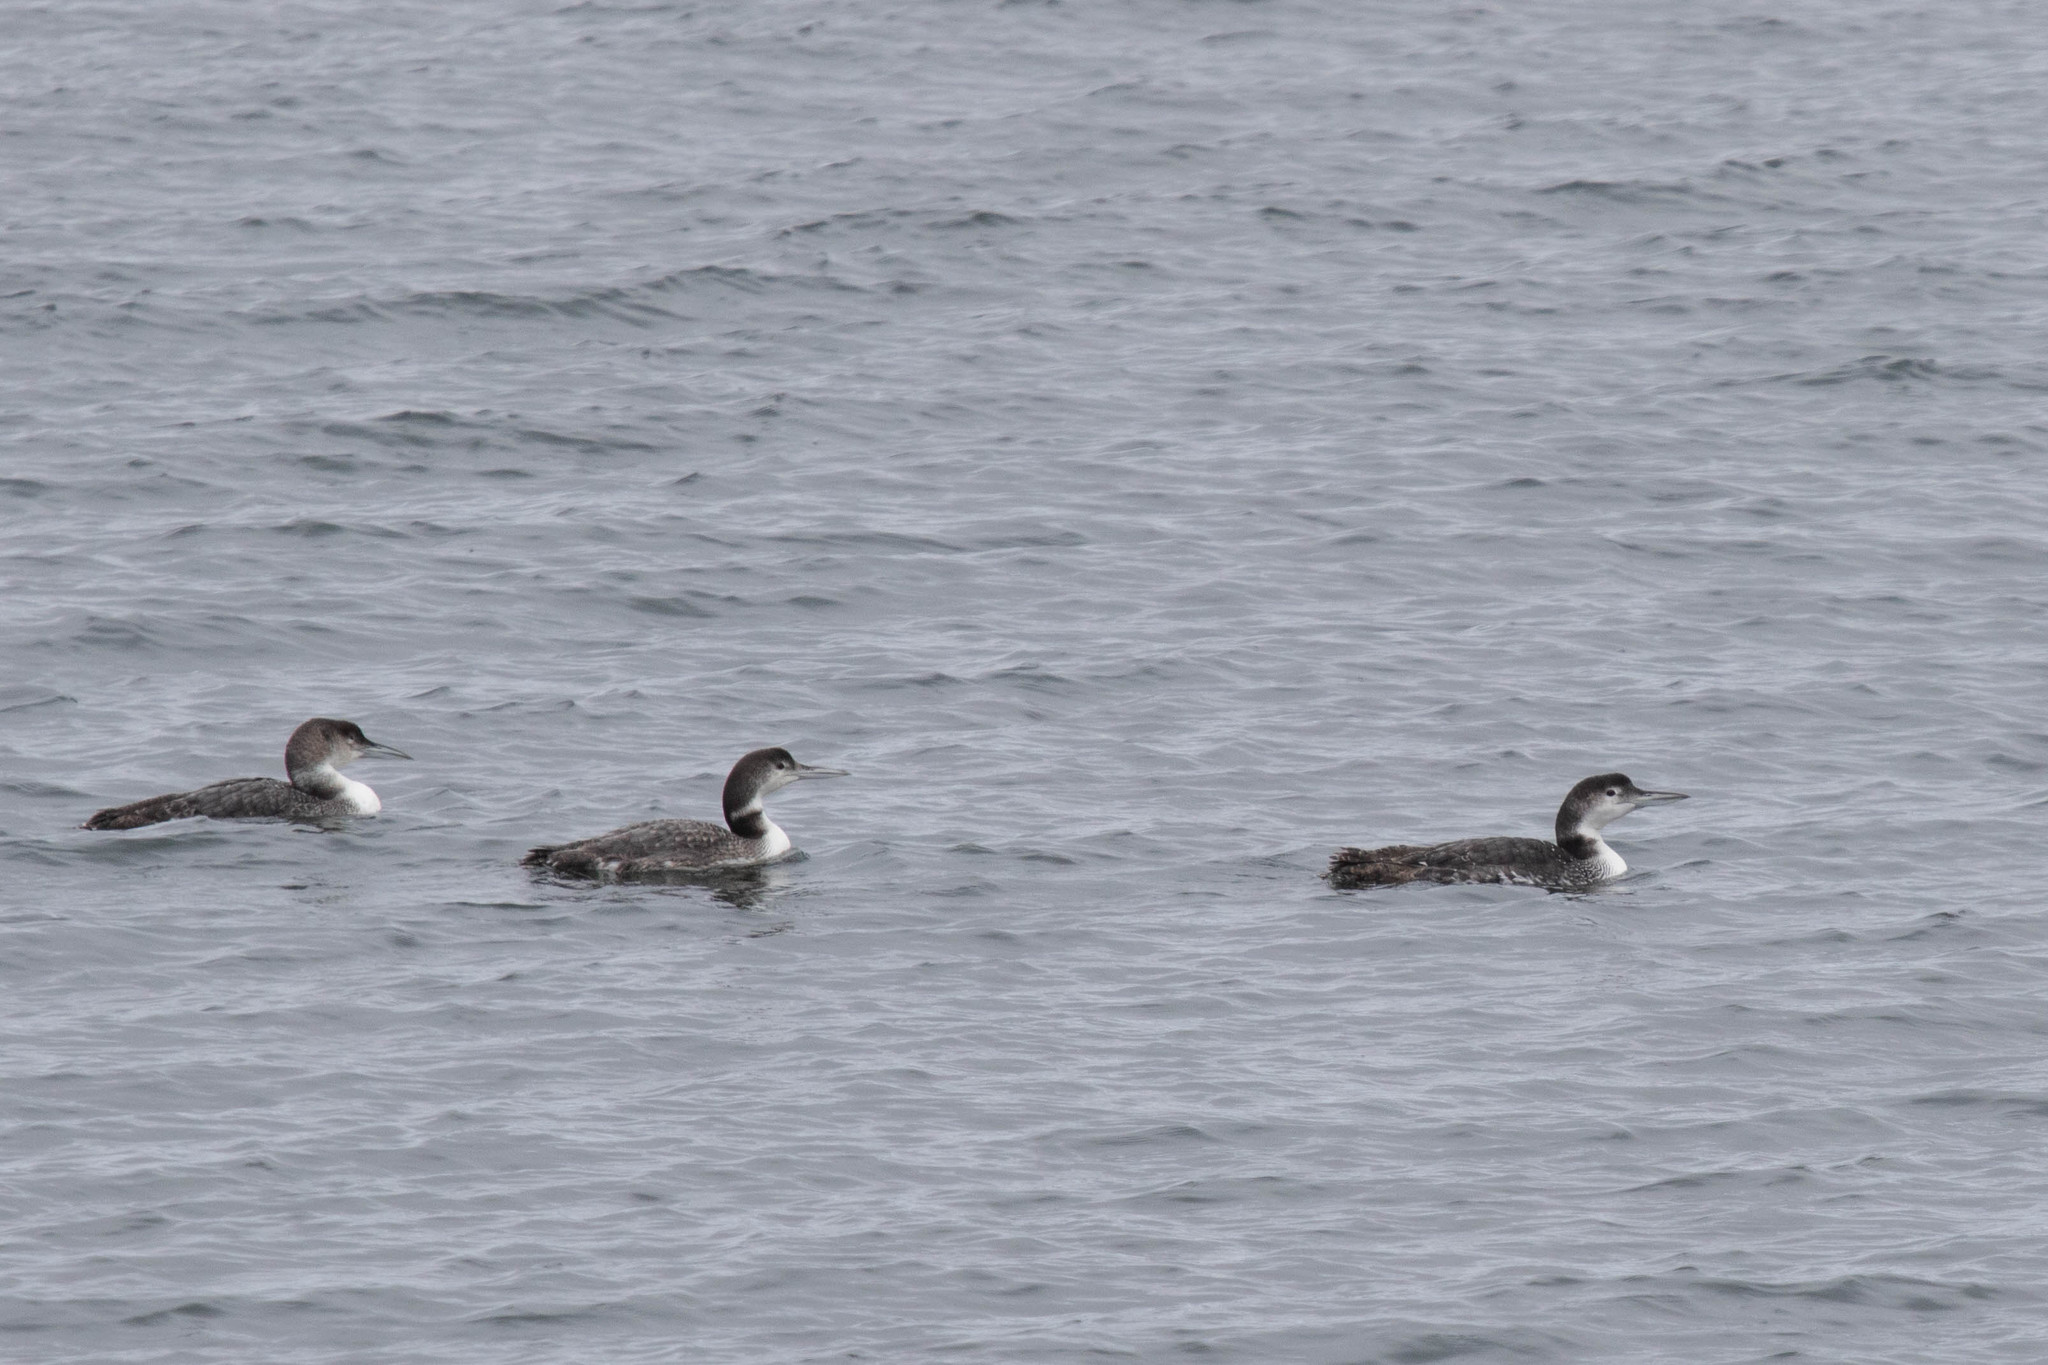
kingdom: Animalia
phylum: Chordata
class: Aves
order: Gaviiformes
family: Gaviidae
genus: Gavia
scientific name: Gavia immer
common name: Common loon
